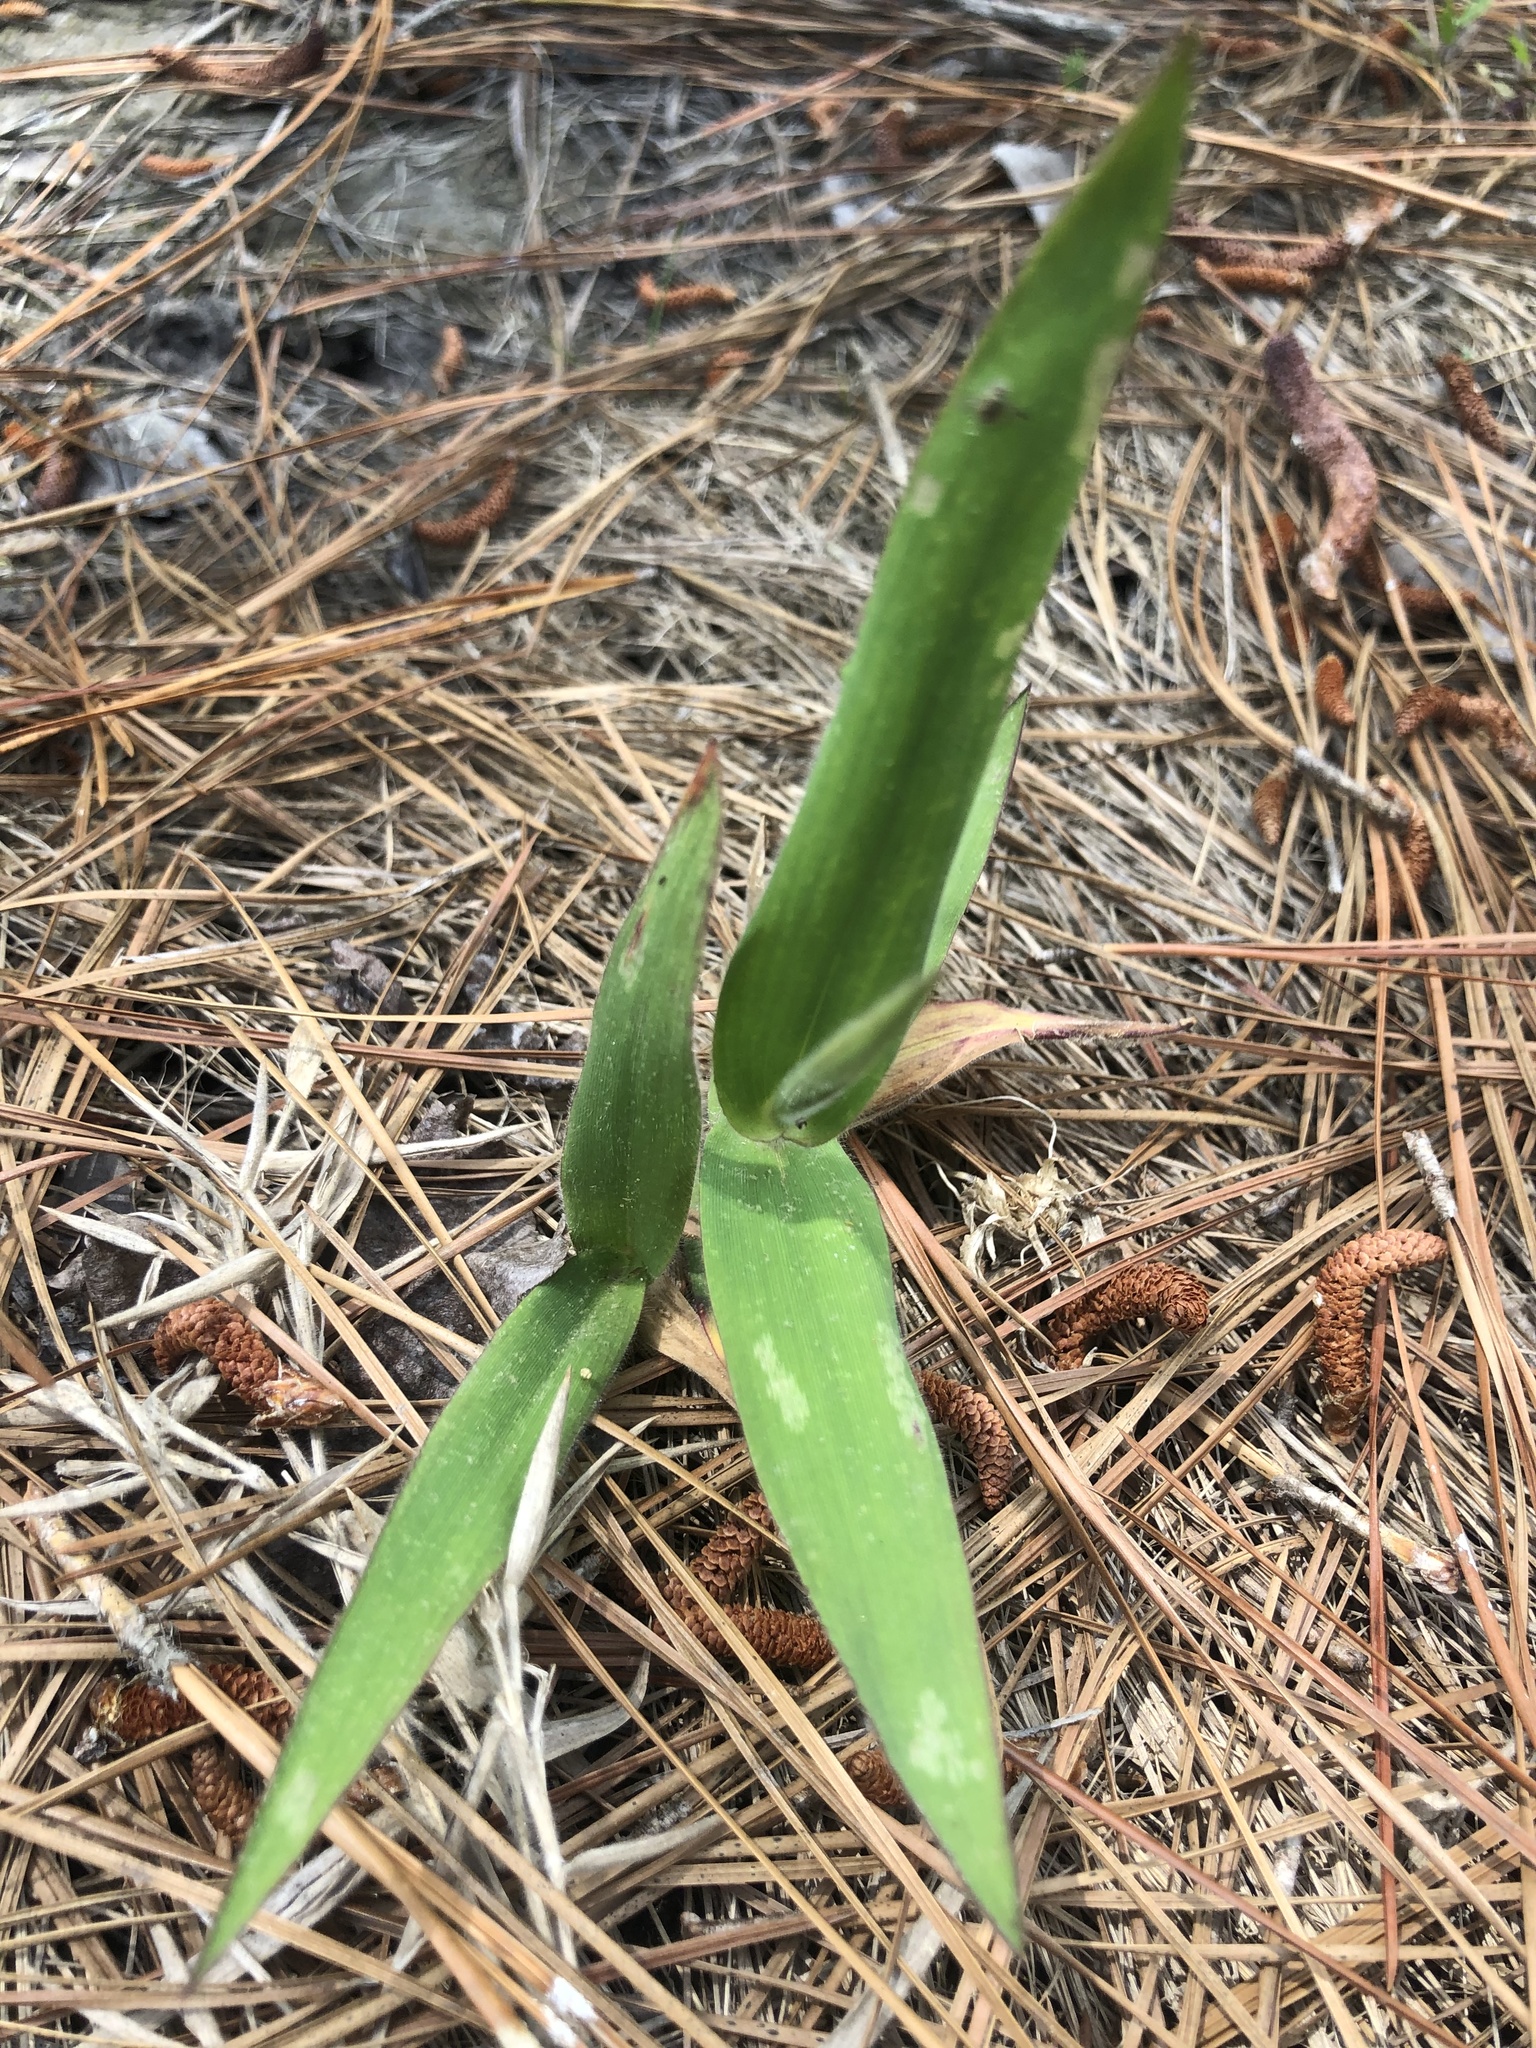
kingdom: Plantae
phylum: Tracheophyta
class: Liliopsida
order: Poales
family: Poaceae
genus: Dichanthelium
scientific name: Dichanthelium scoparium
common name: Velvety panic grass
